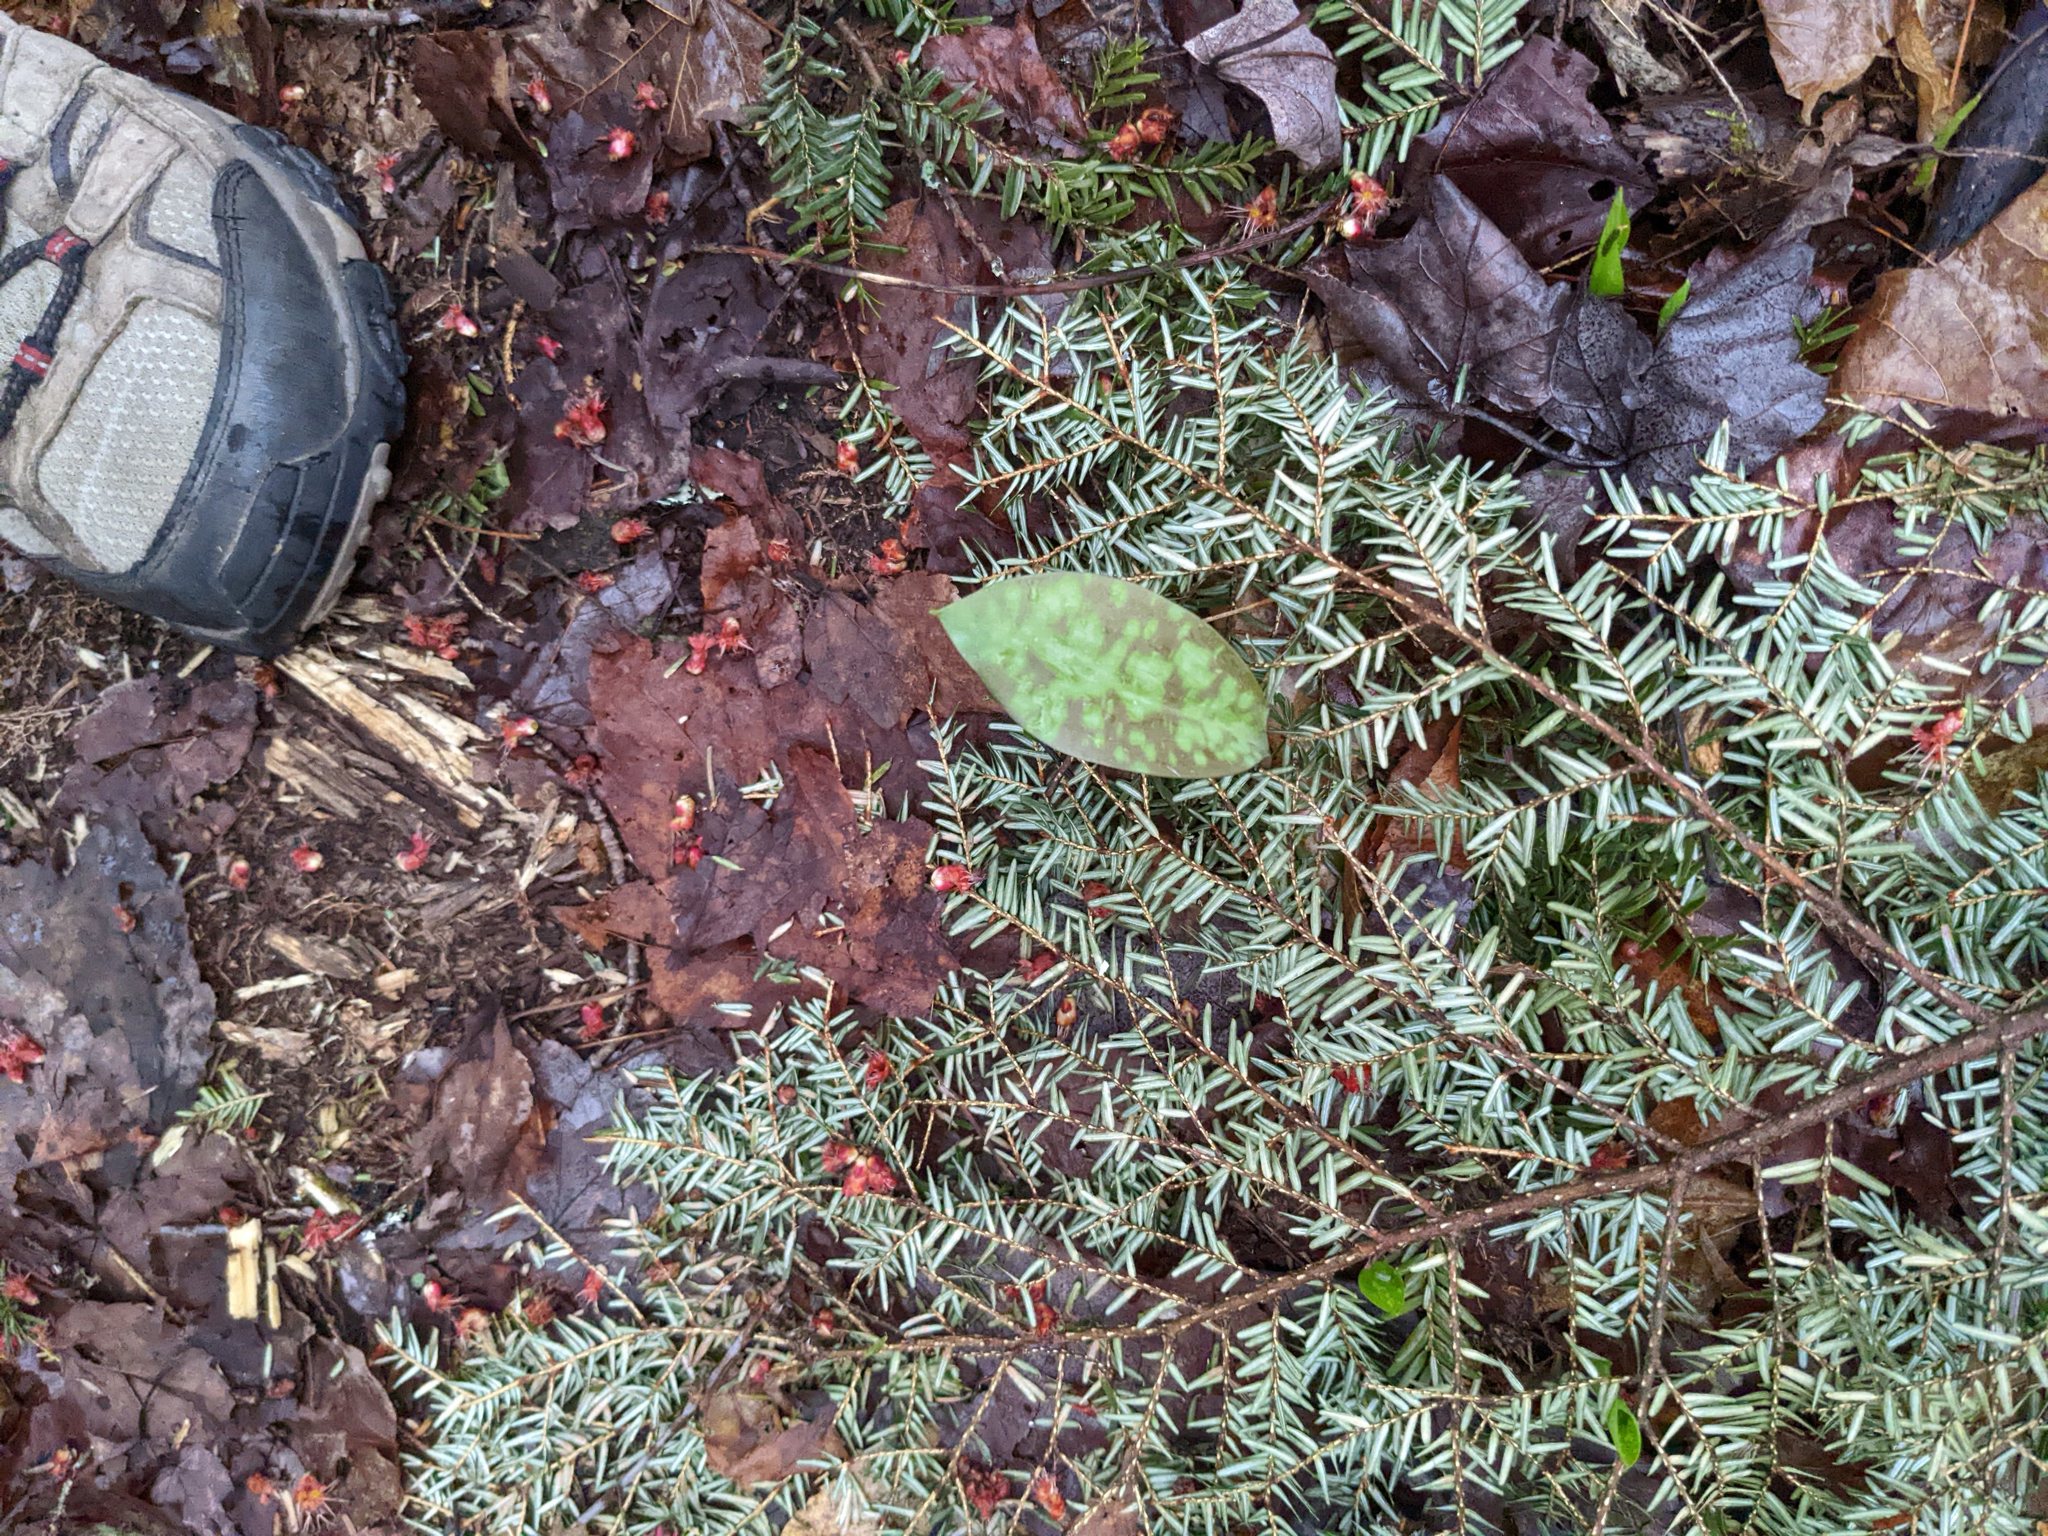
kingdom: Plantae
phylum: Tracheophyta
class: Pinopsida
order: Pinales
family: Pinaceae
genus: Tsuga
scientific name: Tsuga canadensis
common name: Eastern hemlock
